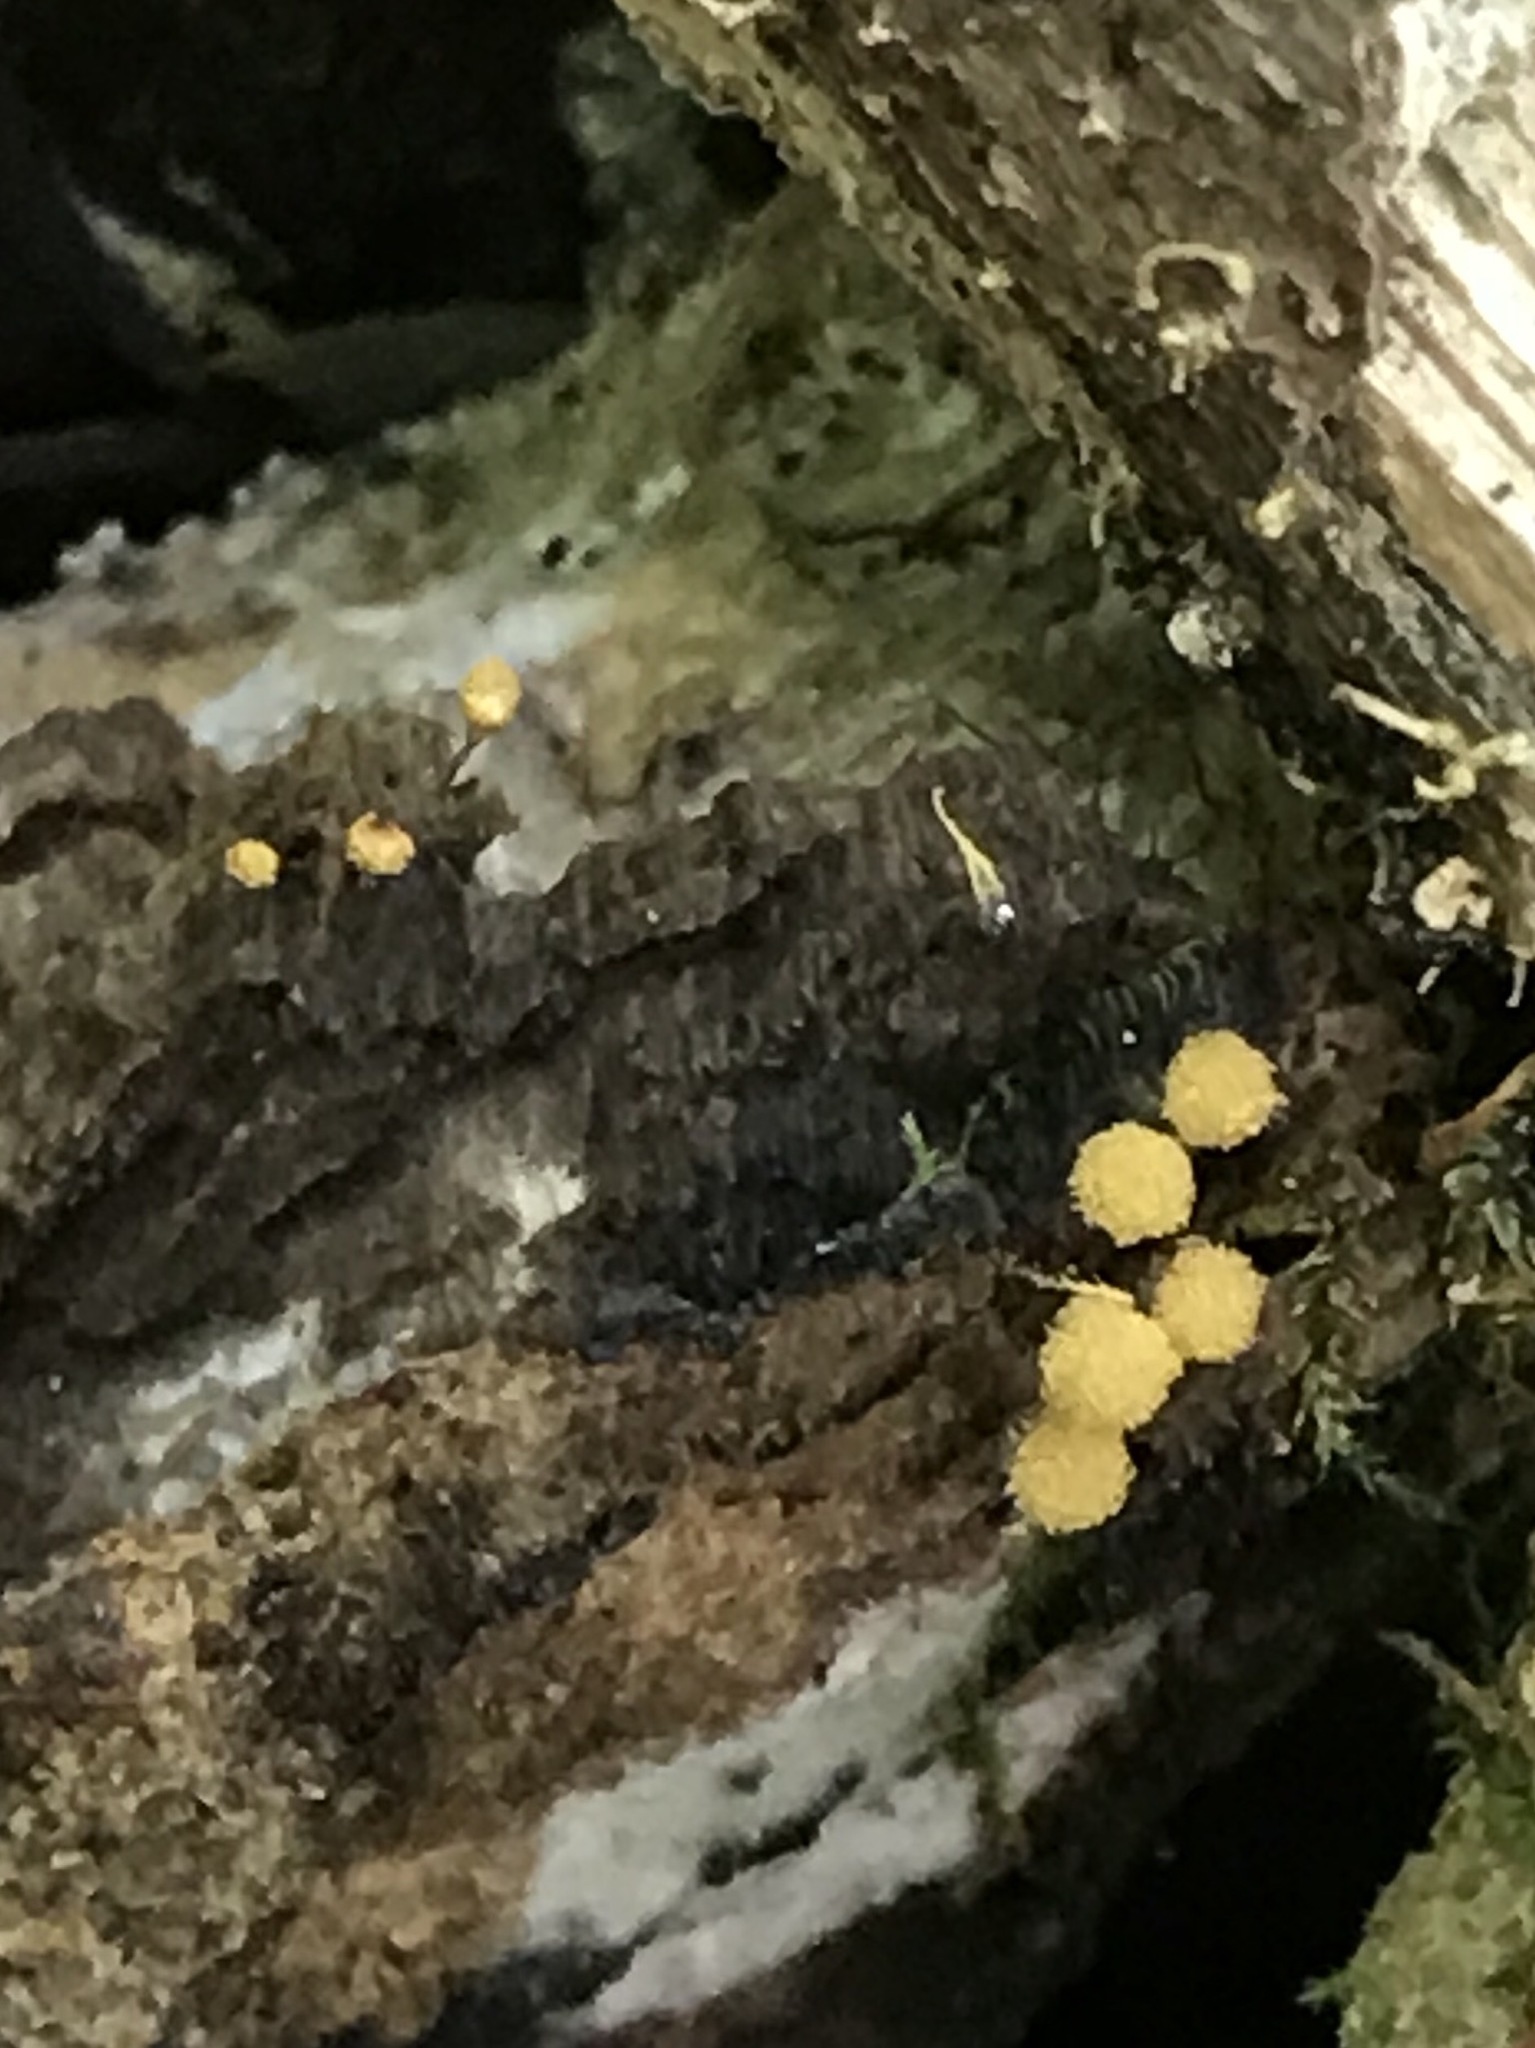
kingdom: Protozoa
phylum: Mycetozoa
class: Myxomycetes
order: Trichiales
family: Arcyriaceae
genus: Hemitrichia
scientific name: Hemitrichia calyculata
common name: Push pin slime mold
